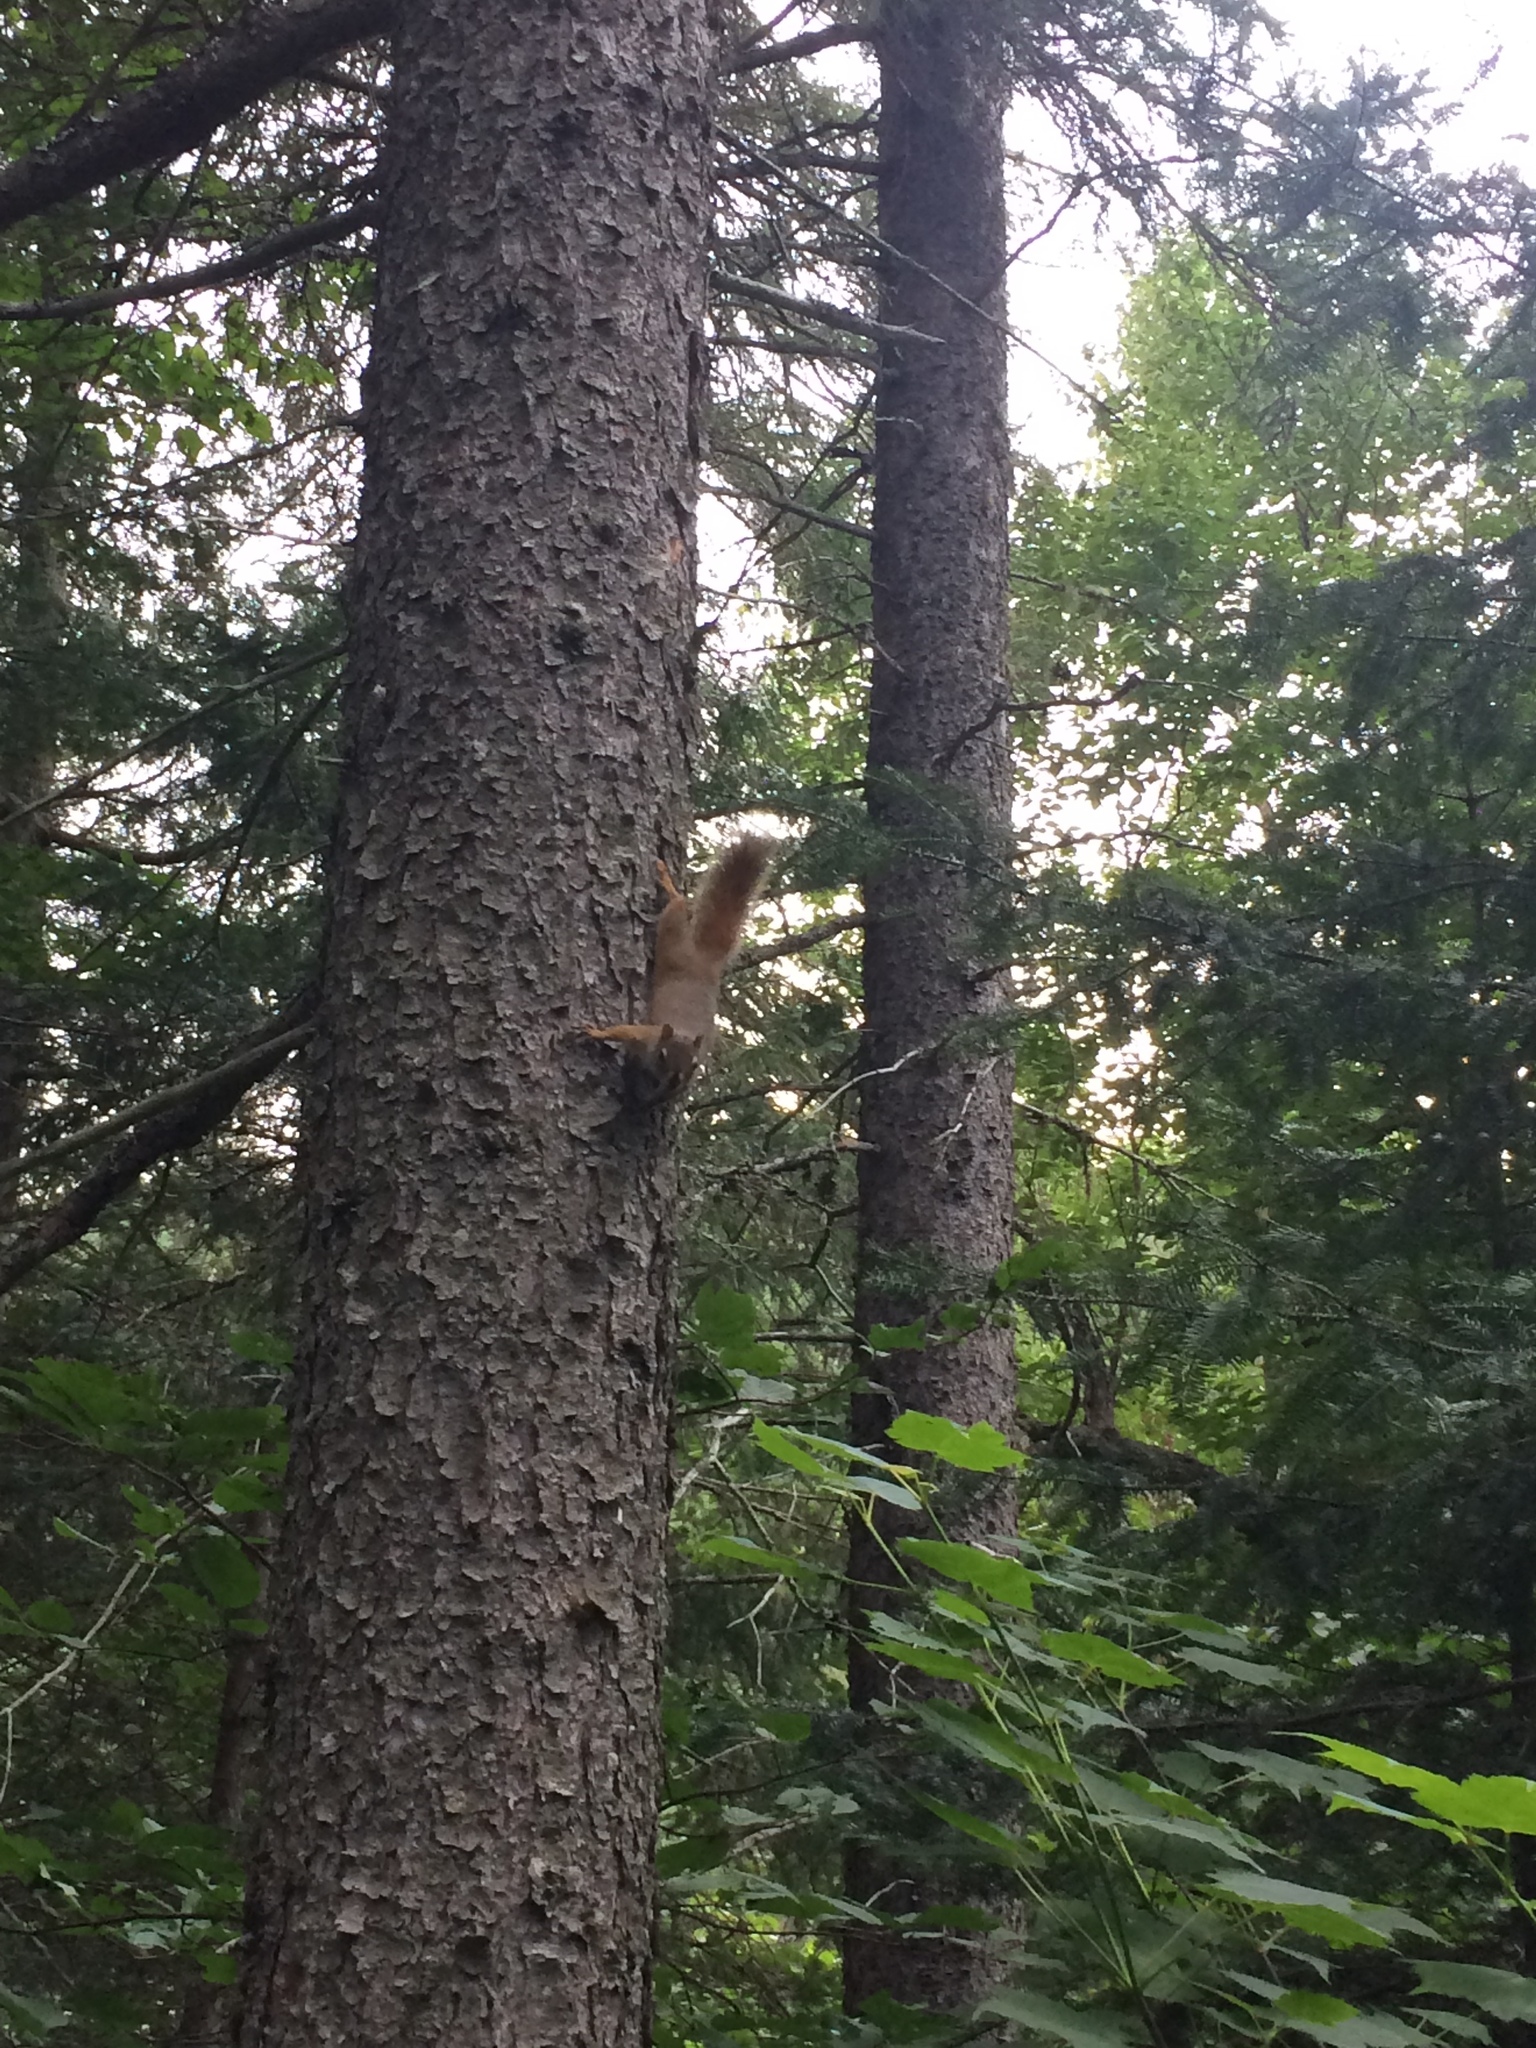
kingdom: Animalia
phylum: Chordata
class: Mammalia
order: Rodentia
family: Sciuridae
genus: Tamiasciurus
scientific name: Tamiasciurus hudsonicus
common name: Red squirrel
